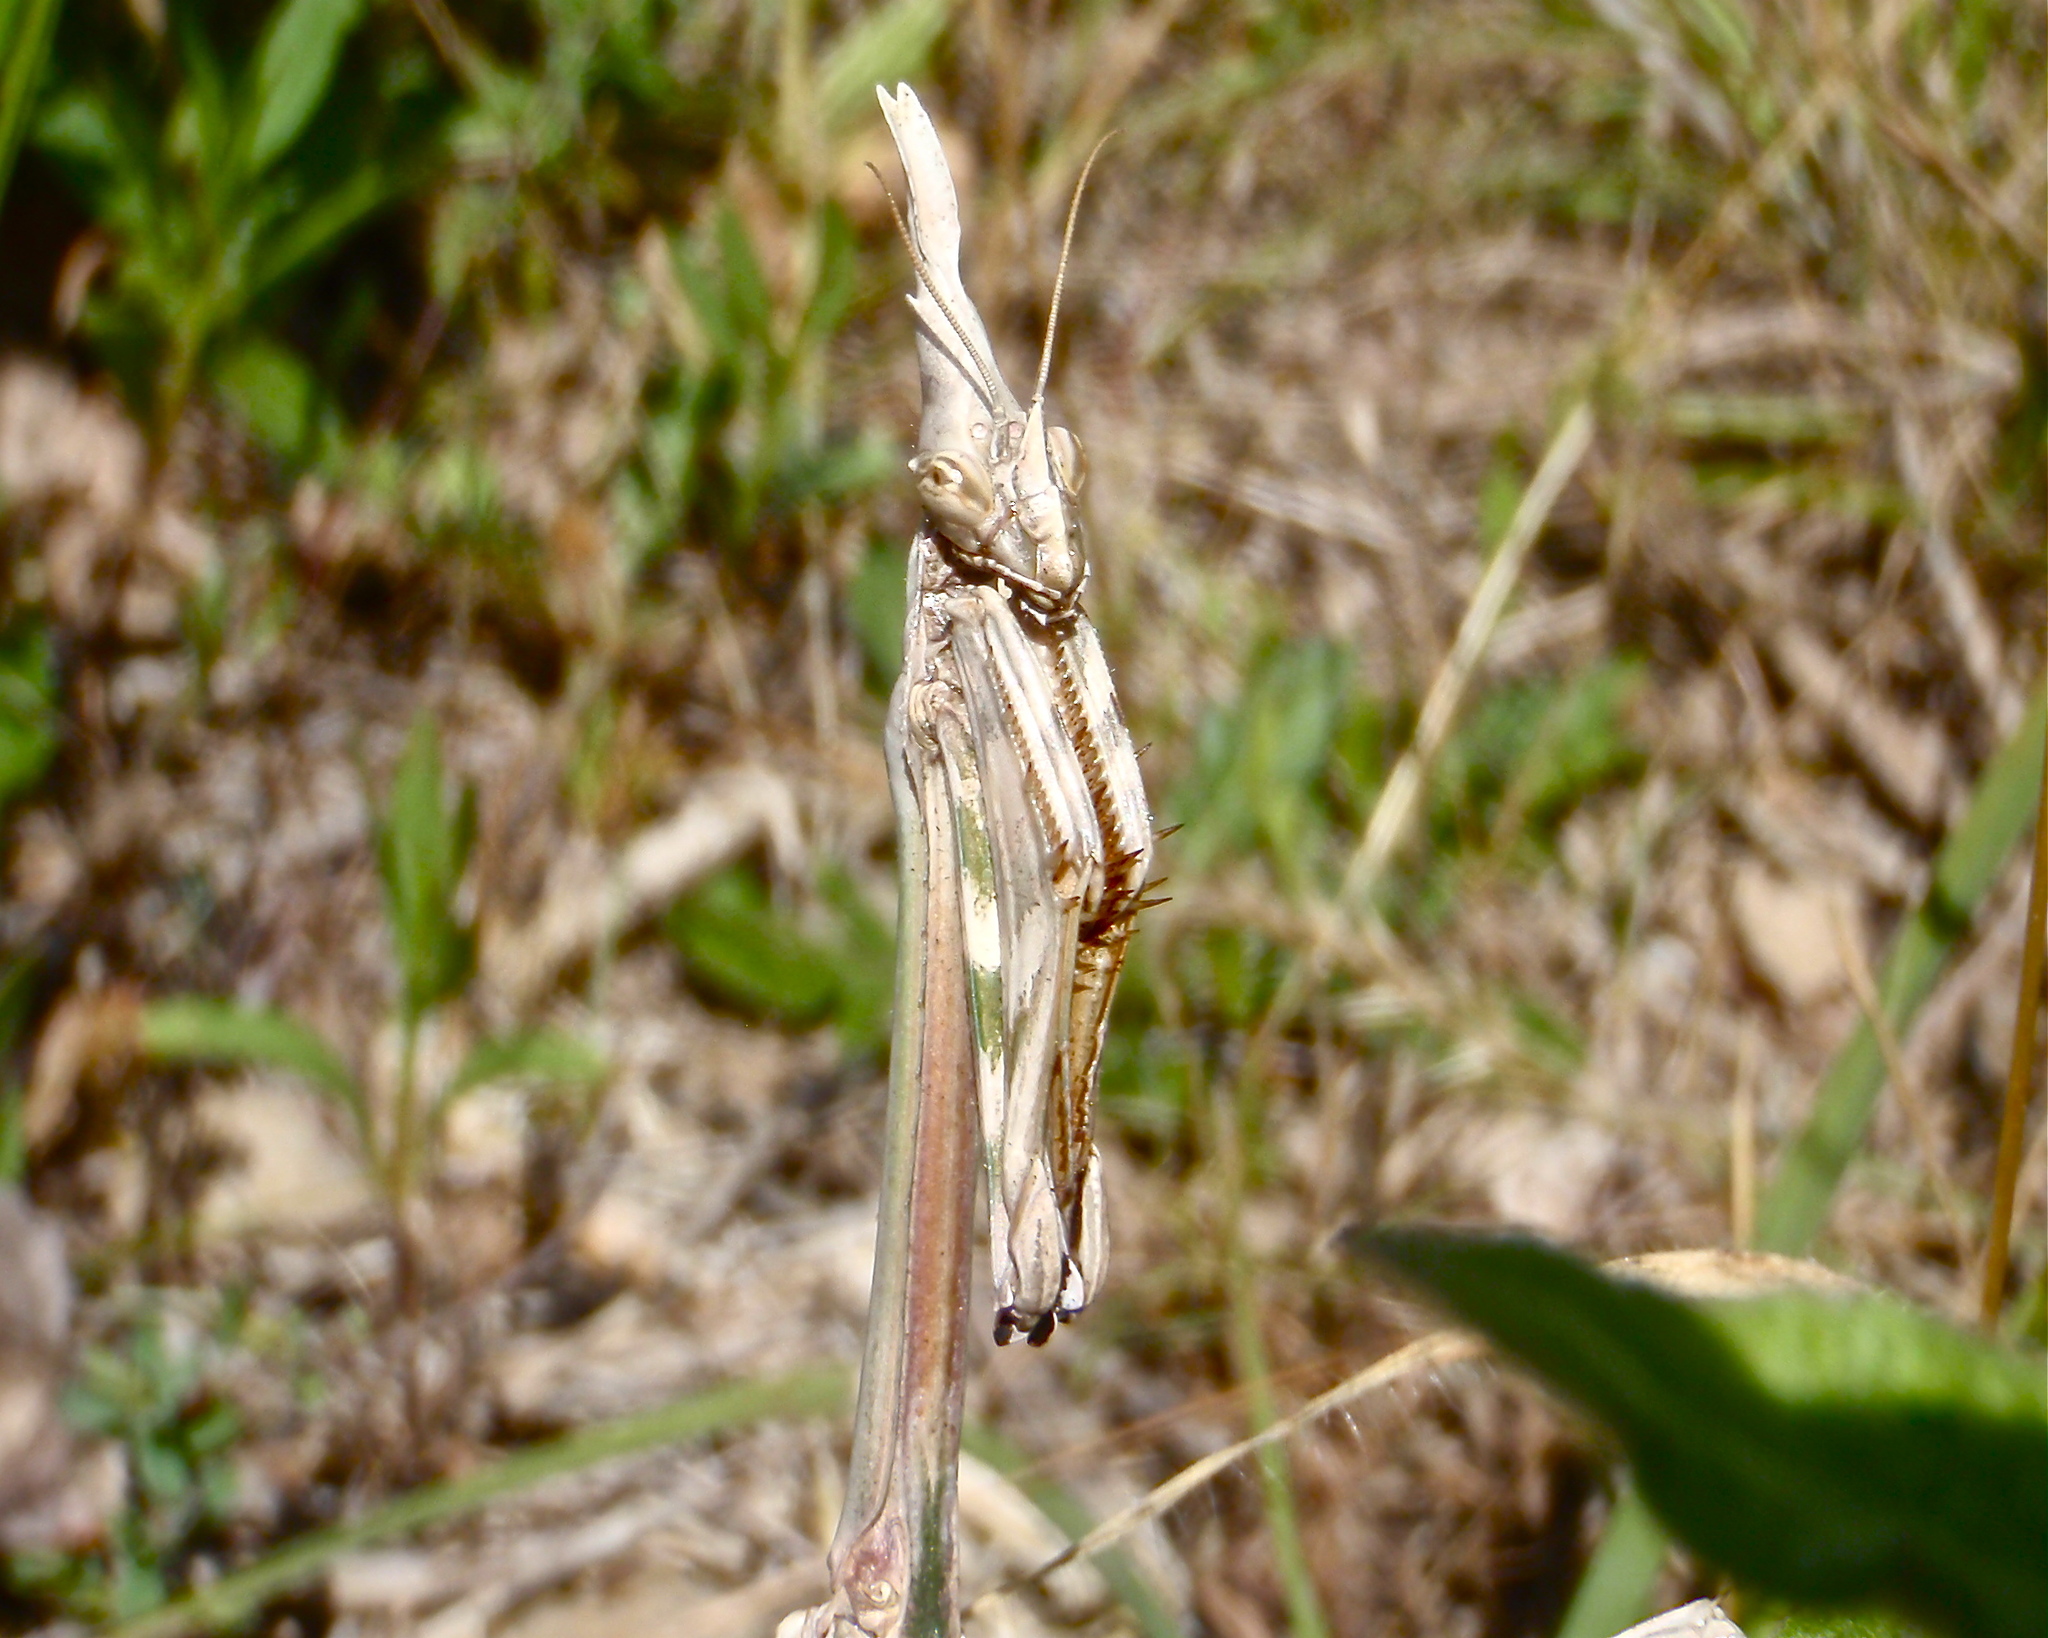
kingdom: Animalia
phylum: Arthropoda
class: Insecta
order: Mantodea
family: Empusidae
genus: Empusa
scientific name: Empusa pennata
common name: Conehead mantis
